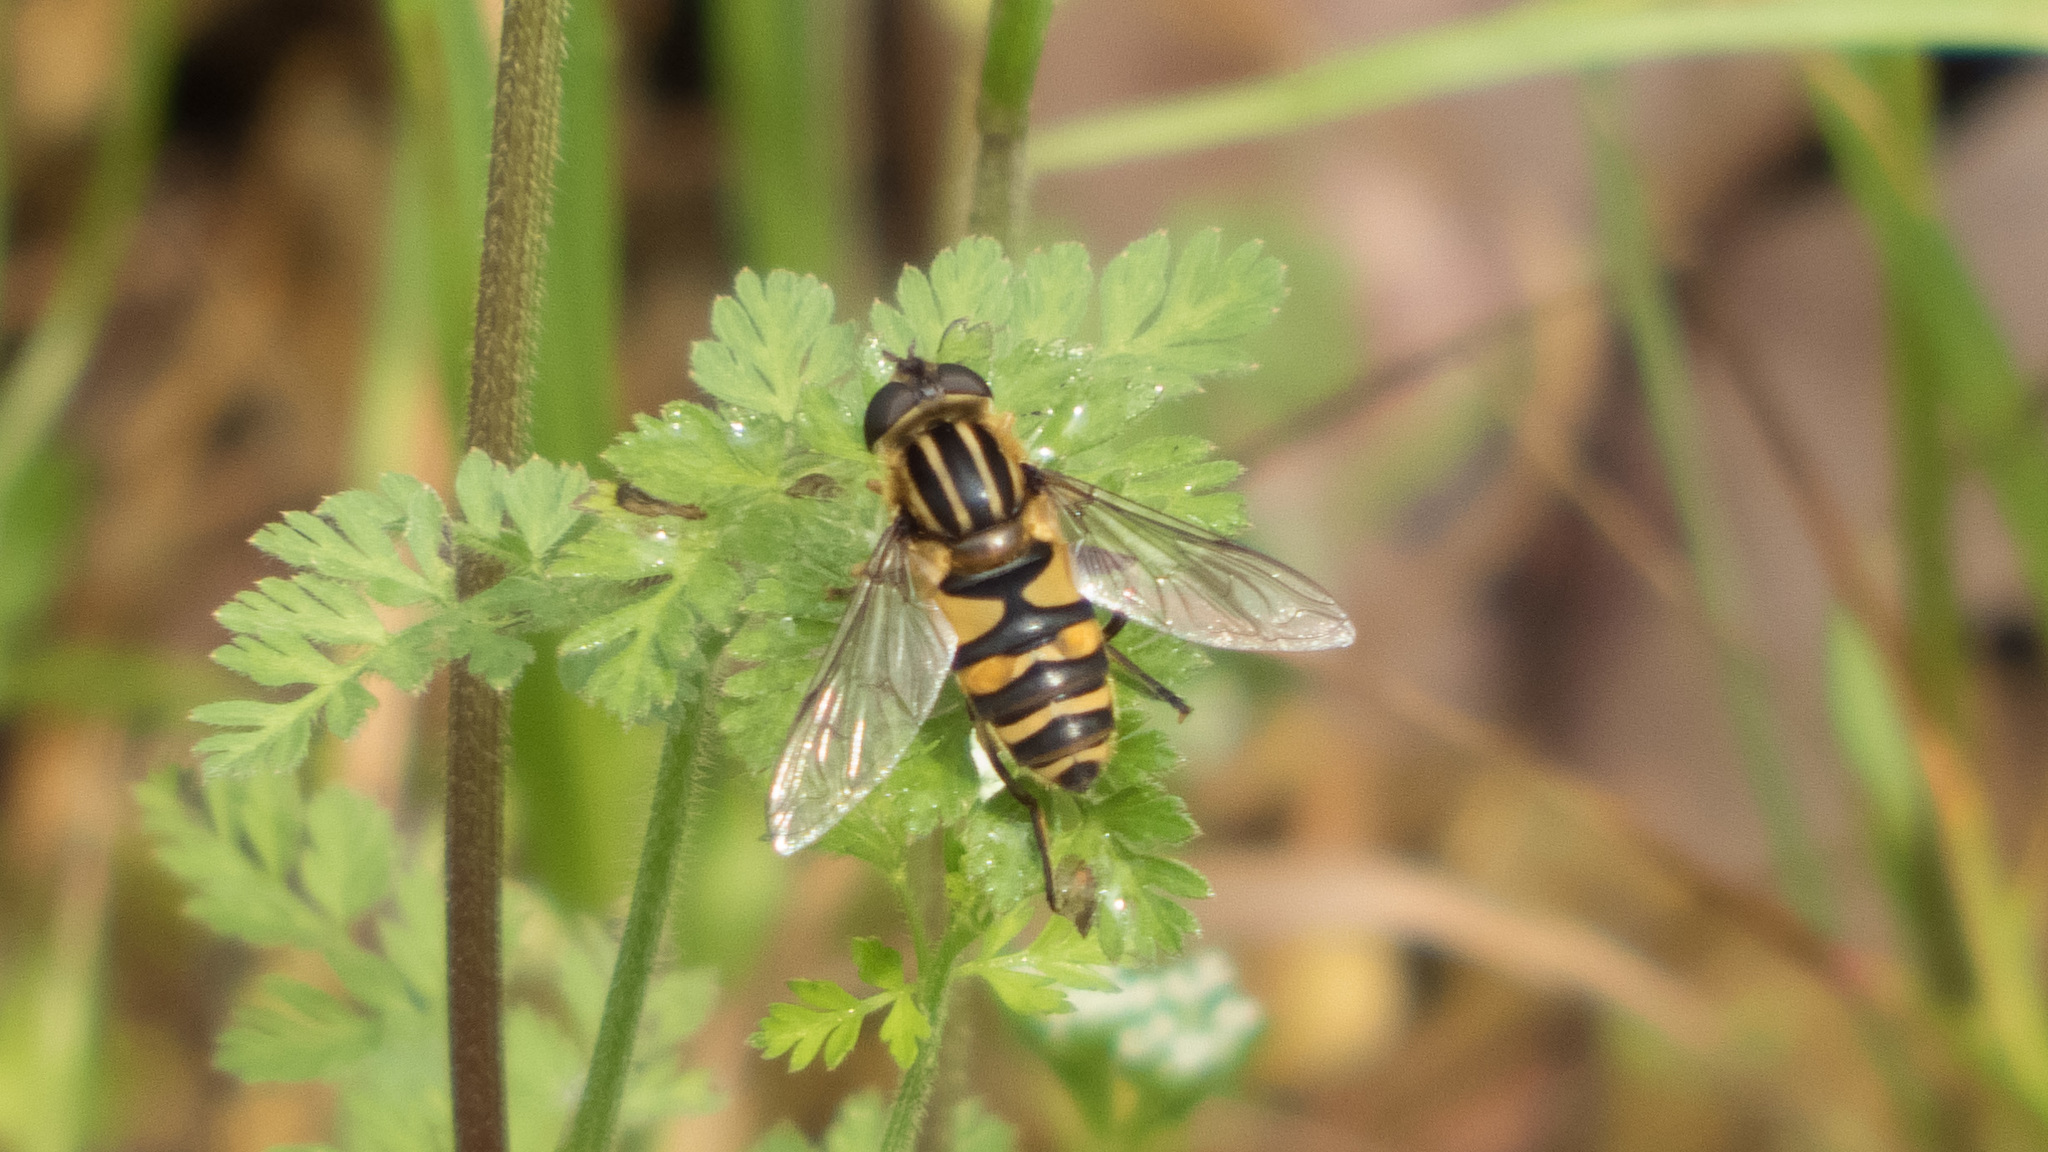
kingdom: Animalia
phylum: Arthropoda
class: Insecta
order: Diptera
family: Syrphidae
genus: Helophilus
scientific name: Helophilus fasciatus
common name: Narrow-headed marsh fly
